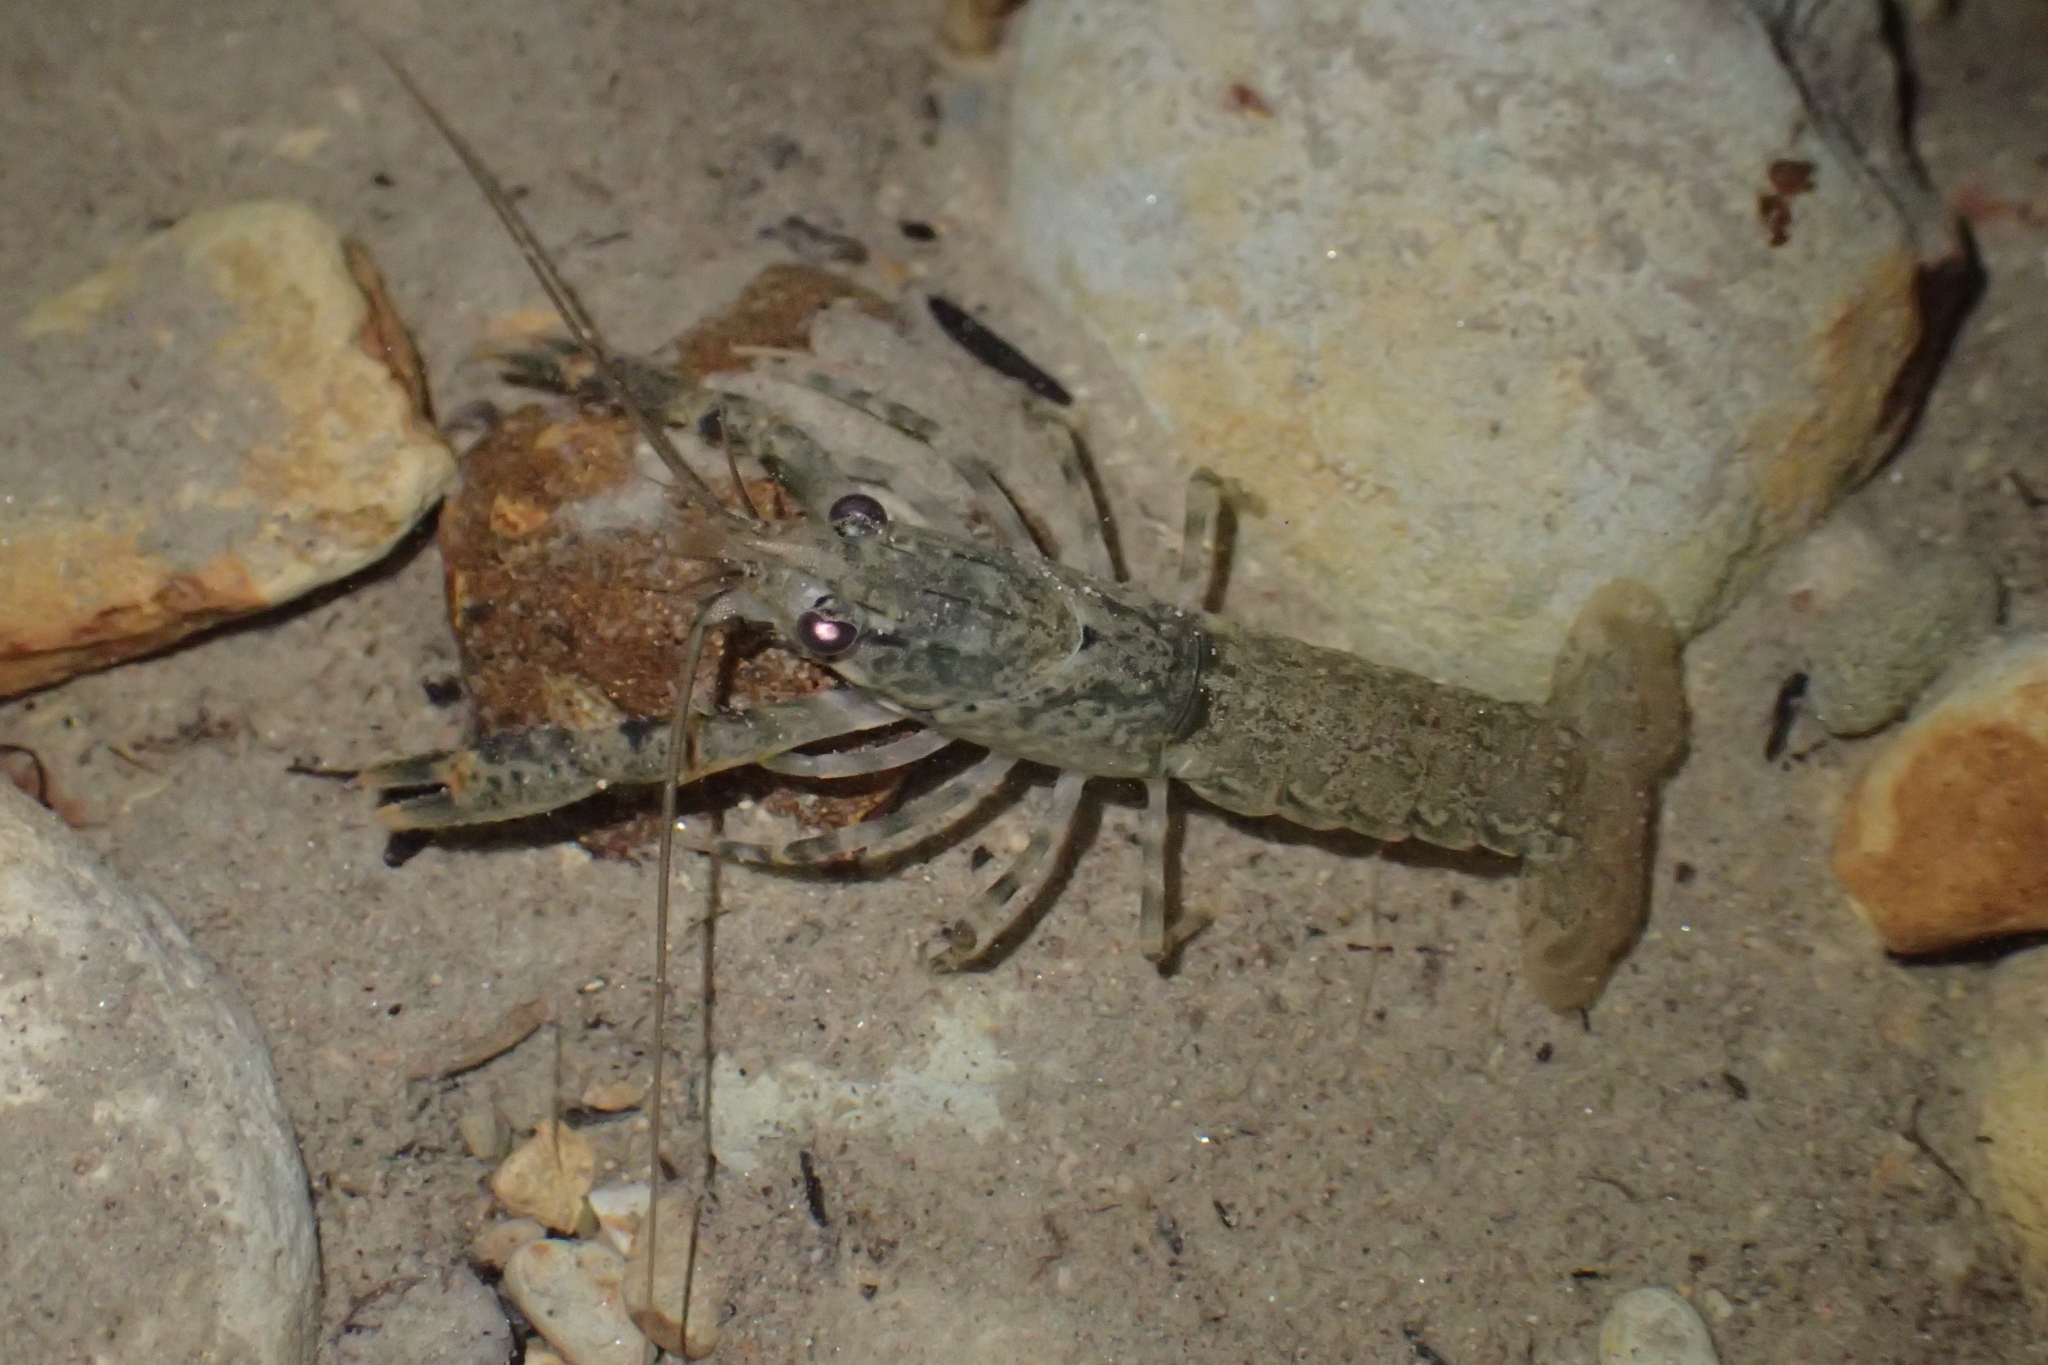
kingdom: Animalia
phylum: Arthropoda
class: Malacostraca
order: Decapoda
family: Parastacidae
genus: Paranephrops
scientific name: Paranephrops planifrons
